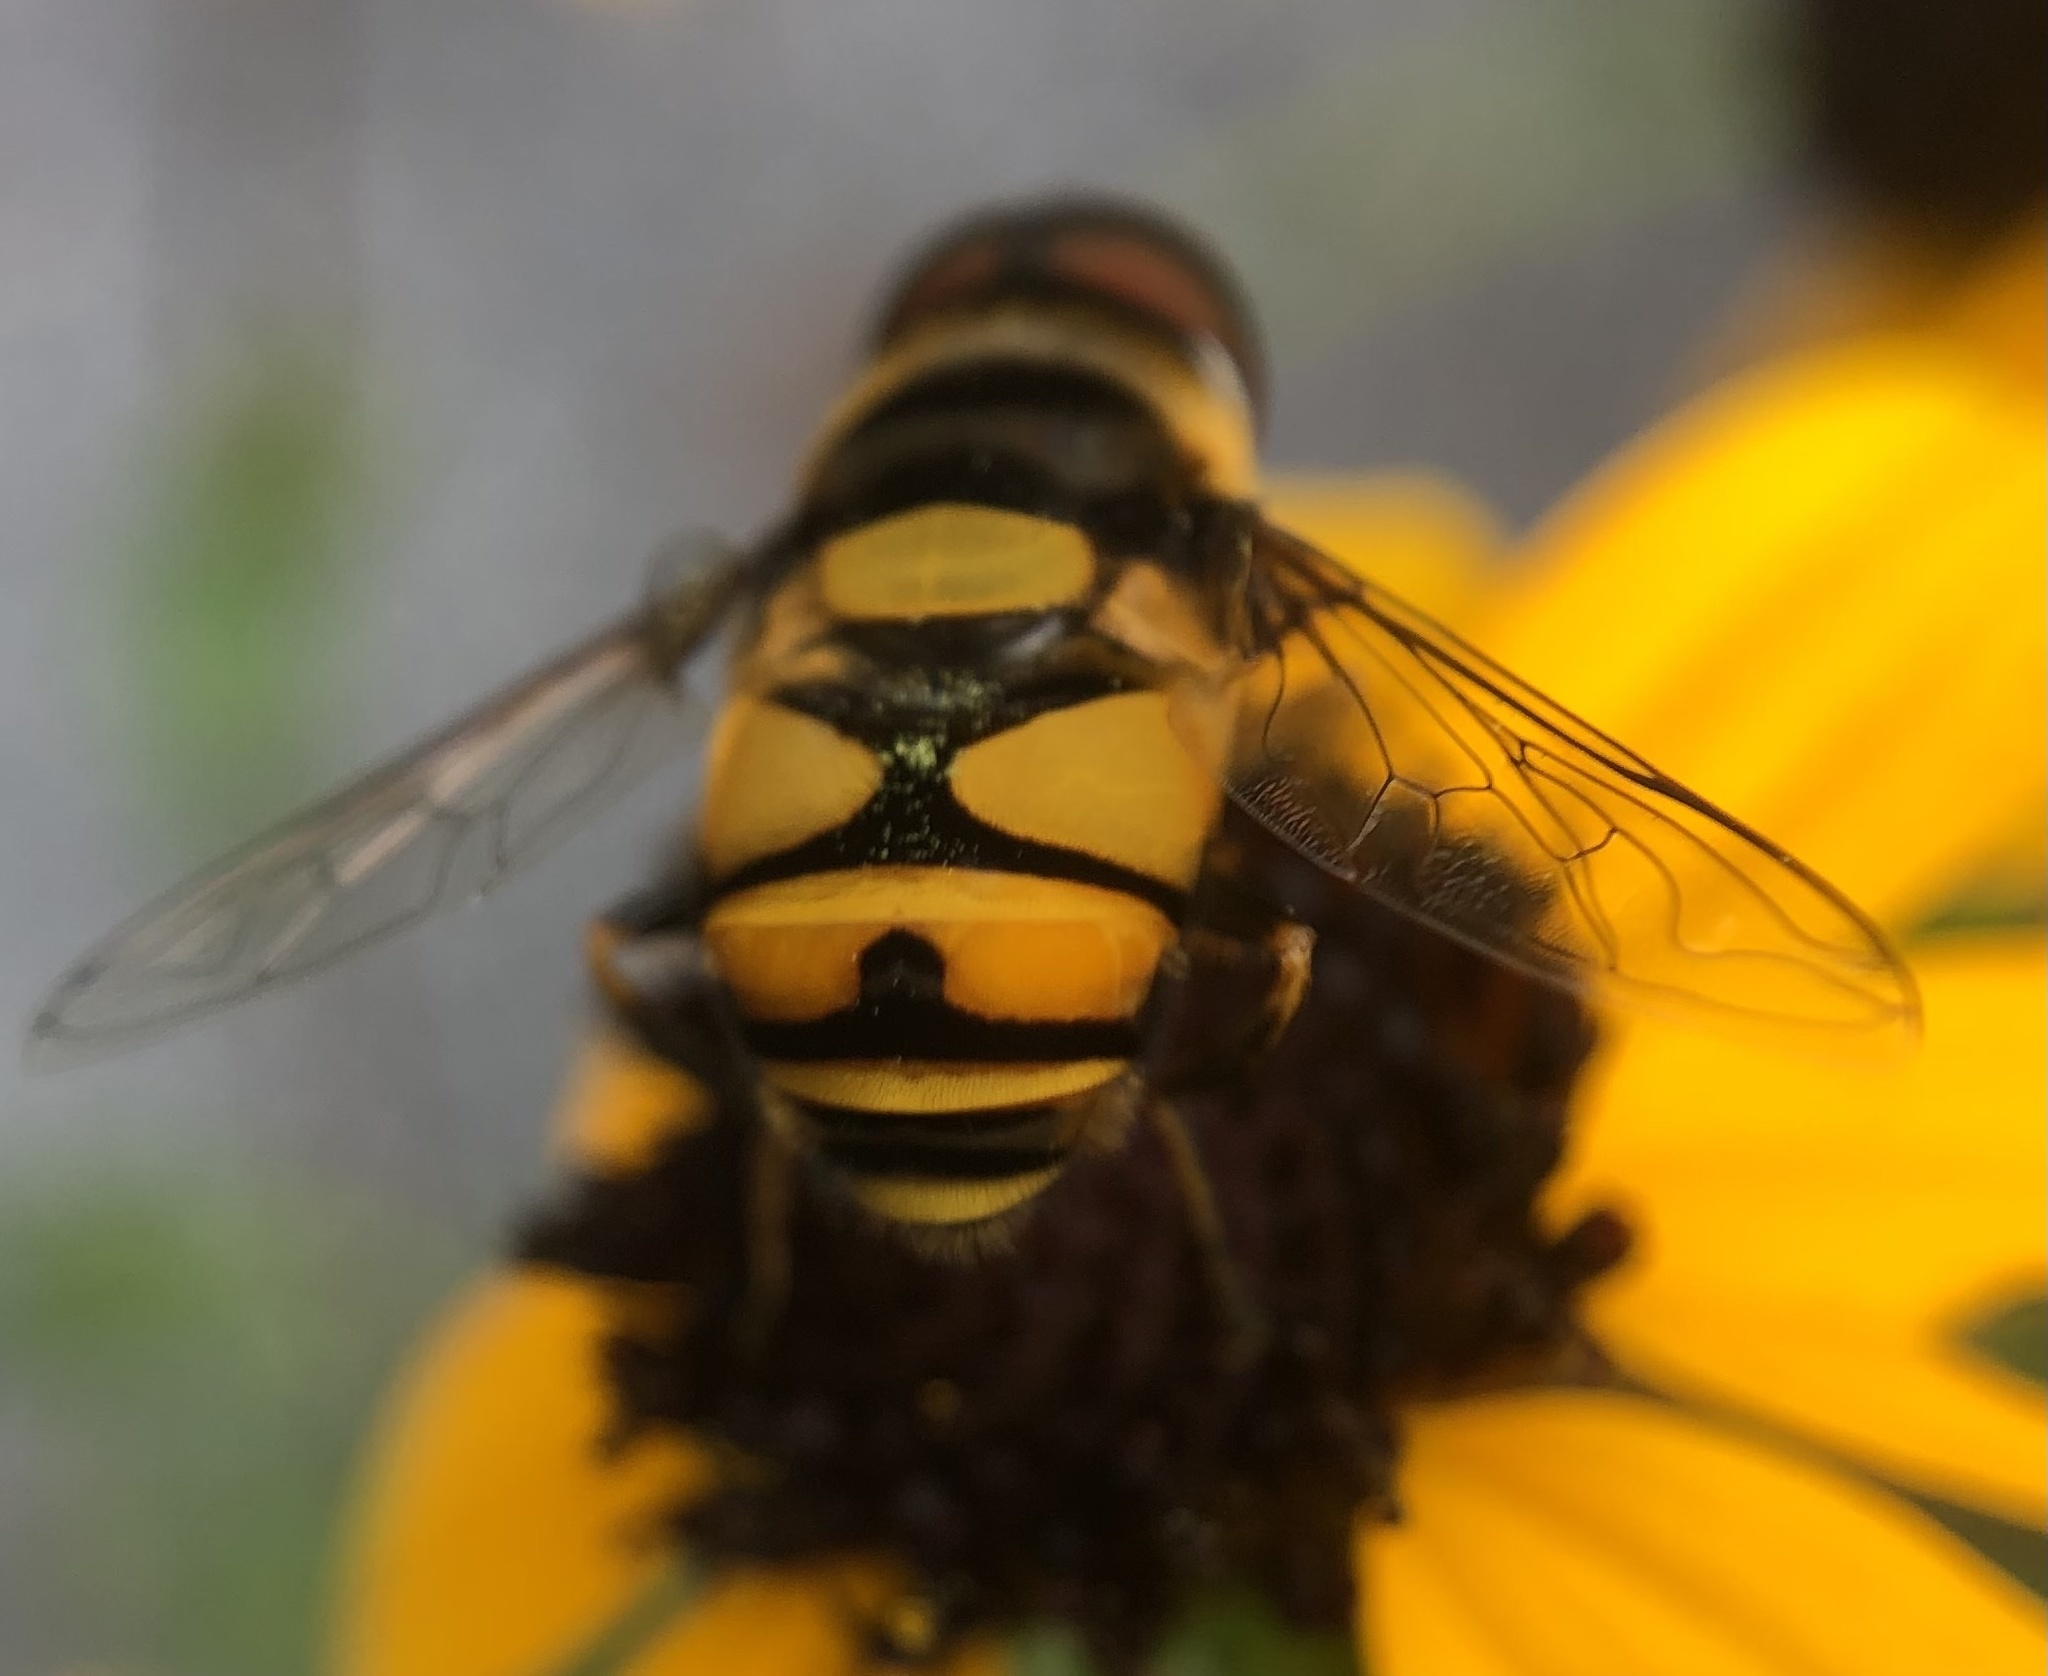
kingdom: Animalia
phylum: Arthropoda
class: Insecta
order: Diptera
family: Syrphidae
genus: Eristalis
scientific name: Eristalis transversa
